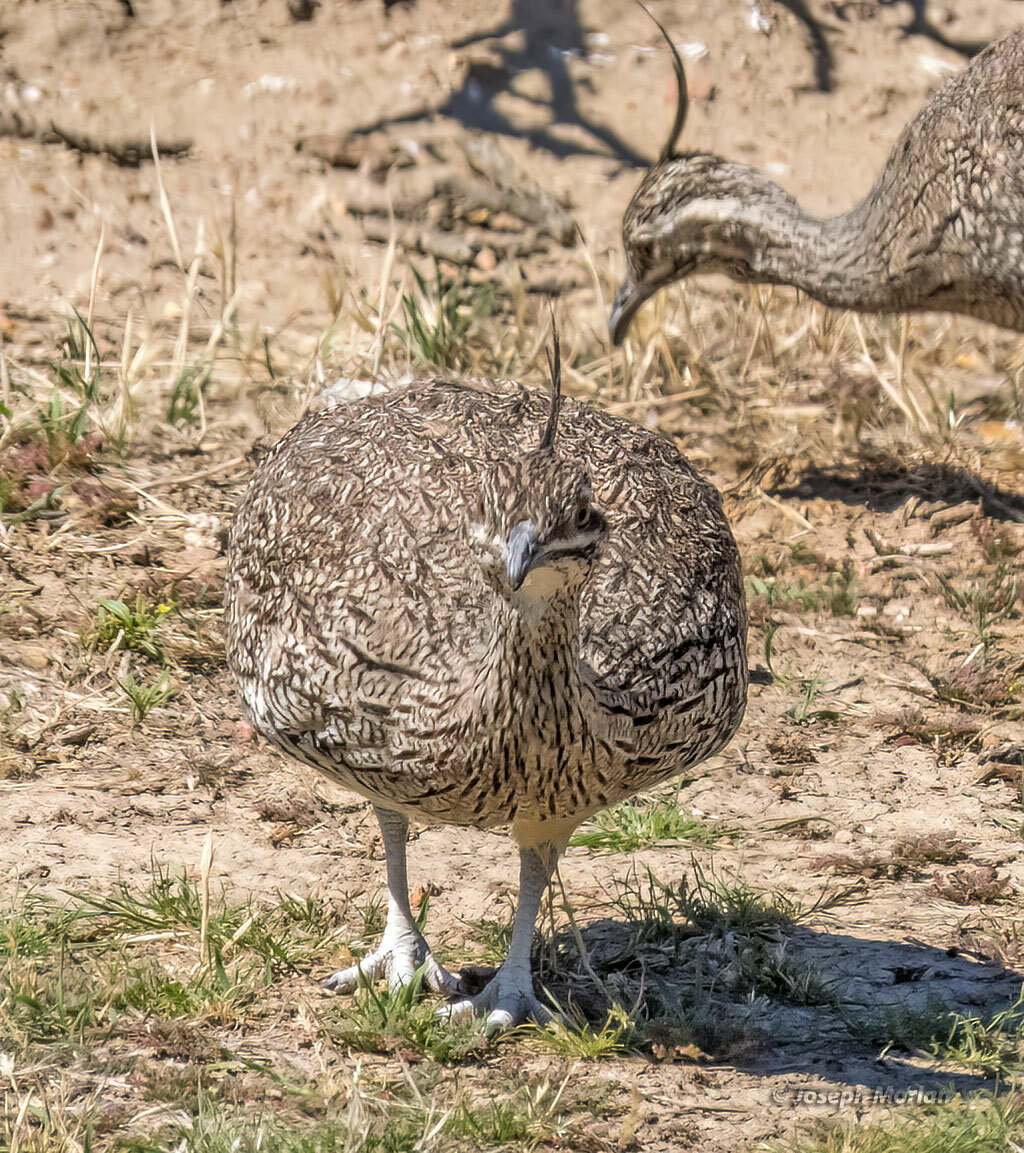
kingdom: Animalia
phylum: Chordata
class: Aves
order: Tinamiformes
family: Tinamidae
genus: Eudromia
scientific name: Eudromia elegans
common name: Elegant crested tinamou
